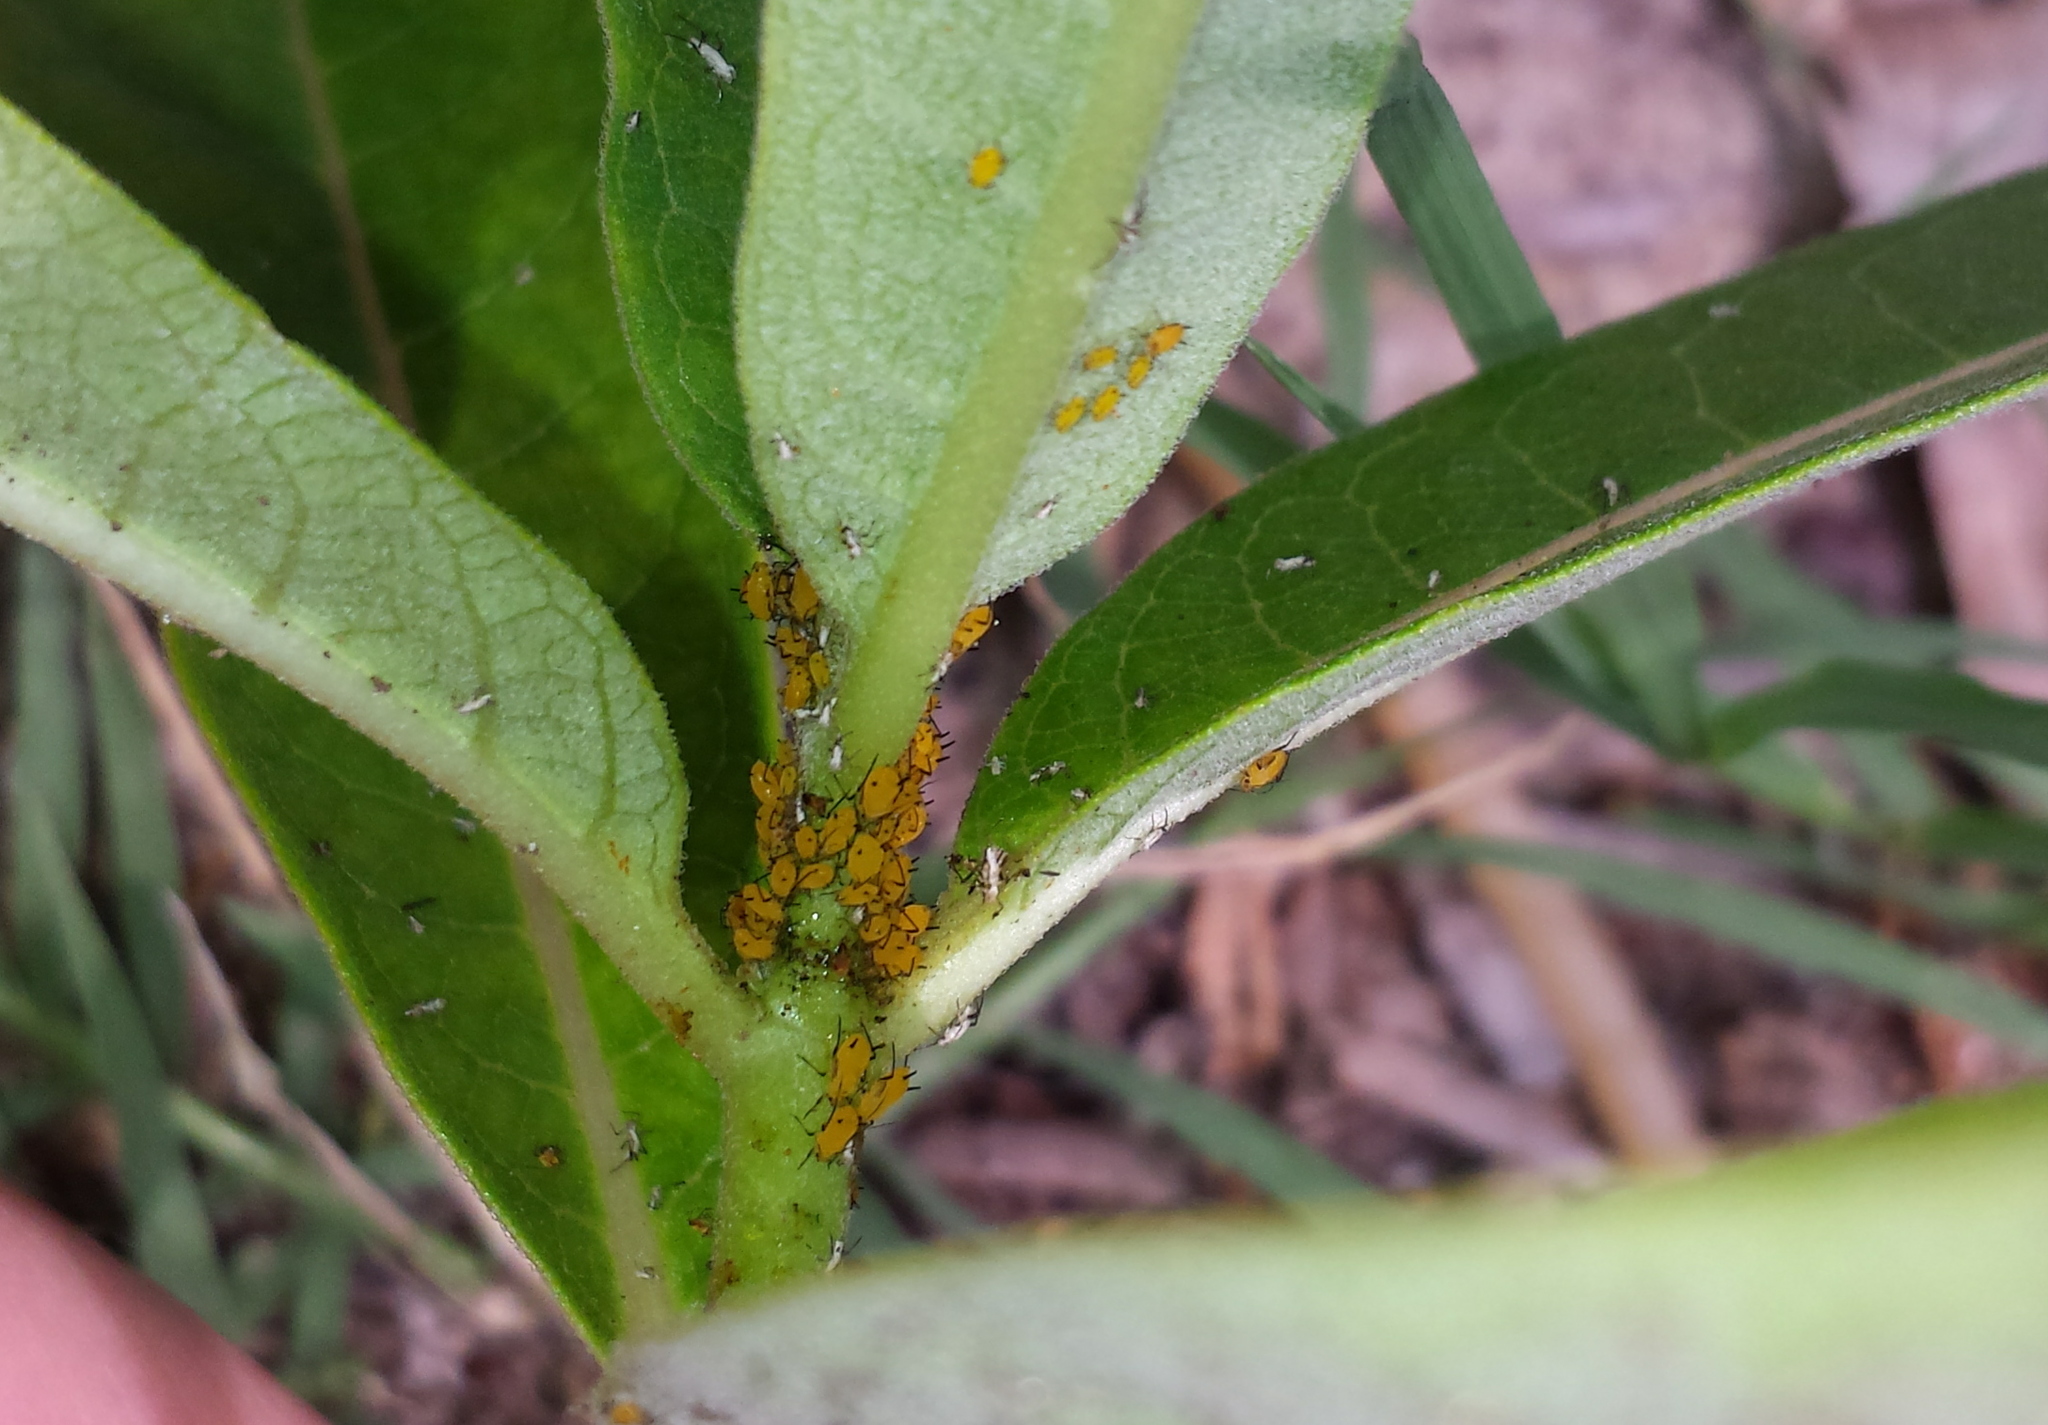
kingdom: Animalia
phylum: Arthropoda
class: Insecta
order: Hemiptera
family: Aphididae
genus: Aphis
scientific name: Aphis nerii
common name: Oleander aphid
